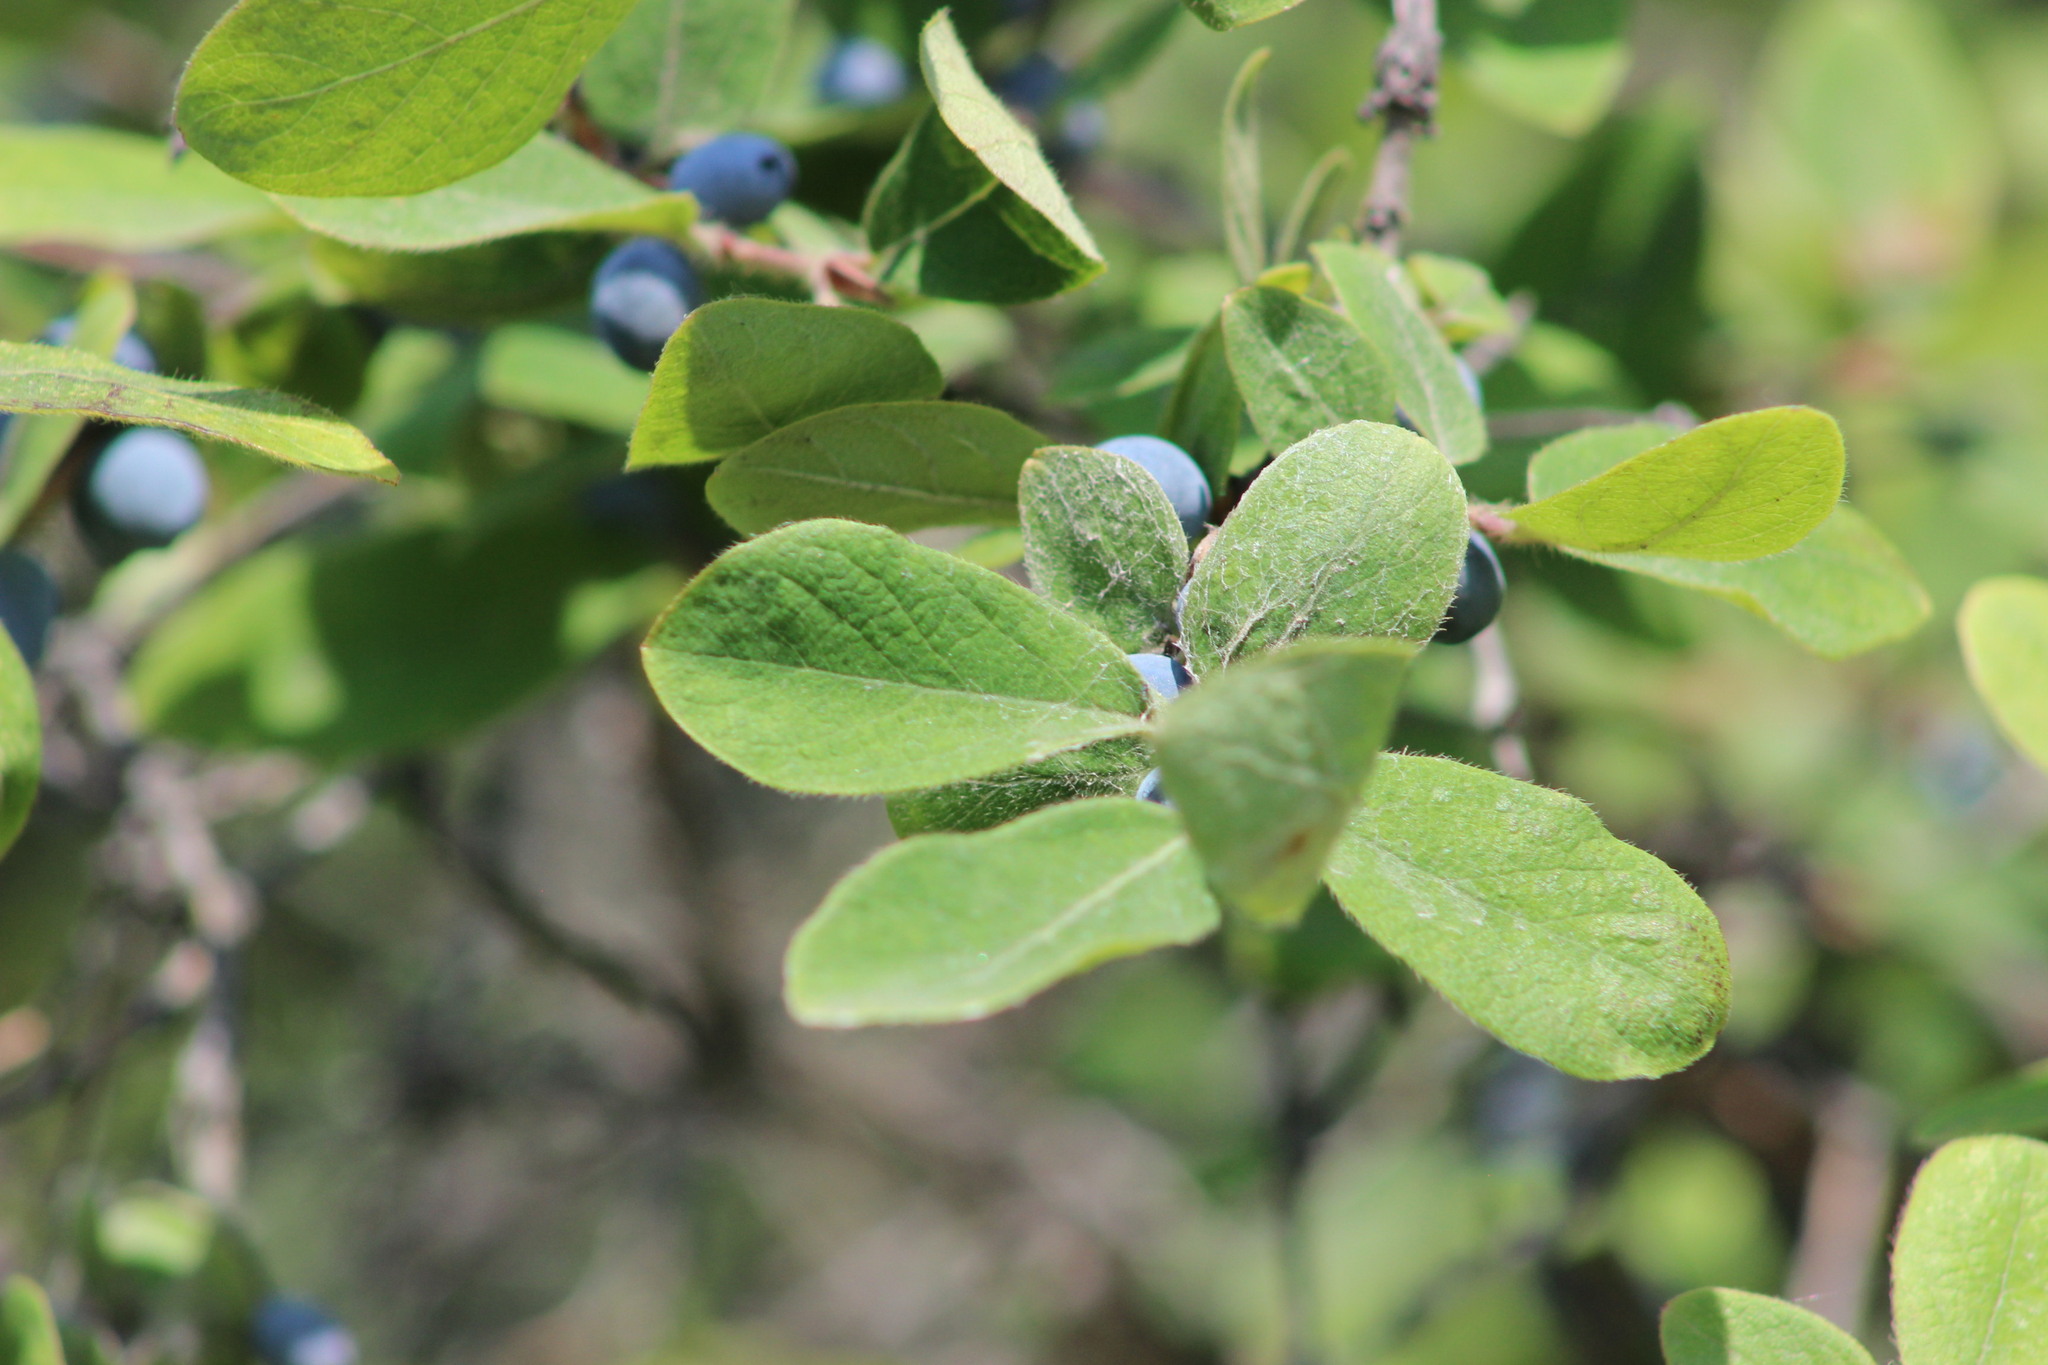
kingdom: Plantae
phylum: Tracheophyta
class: Magnoliopsida
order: Dipsacales
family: Caprifoliaceae
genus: Lonicera
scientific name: Lonicera caerulea
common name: Blue honeysuckle
